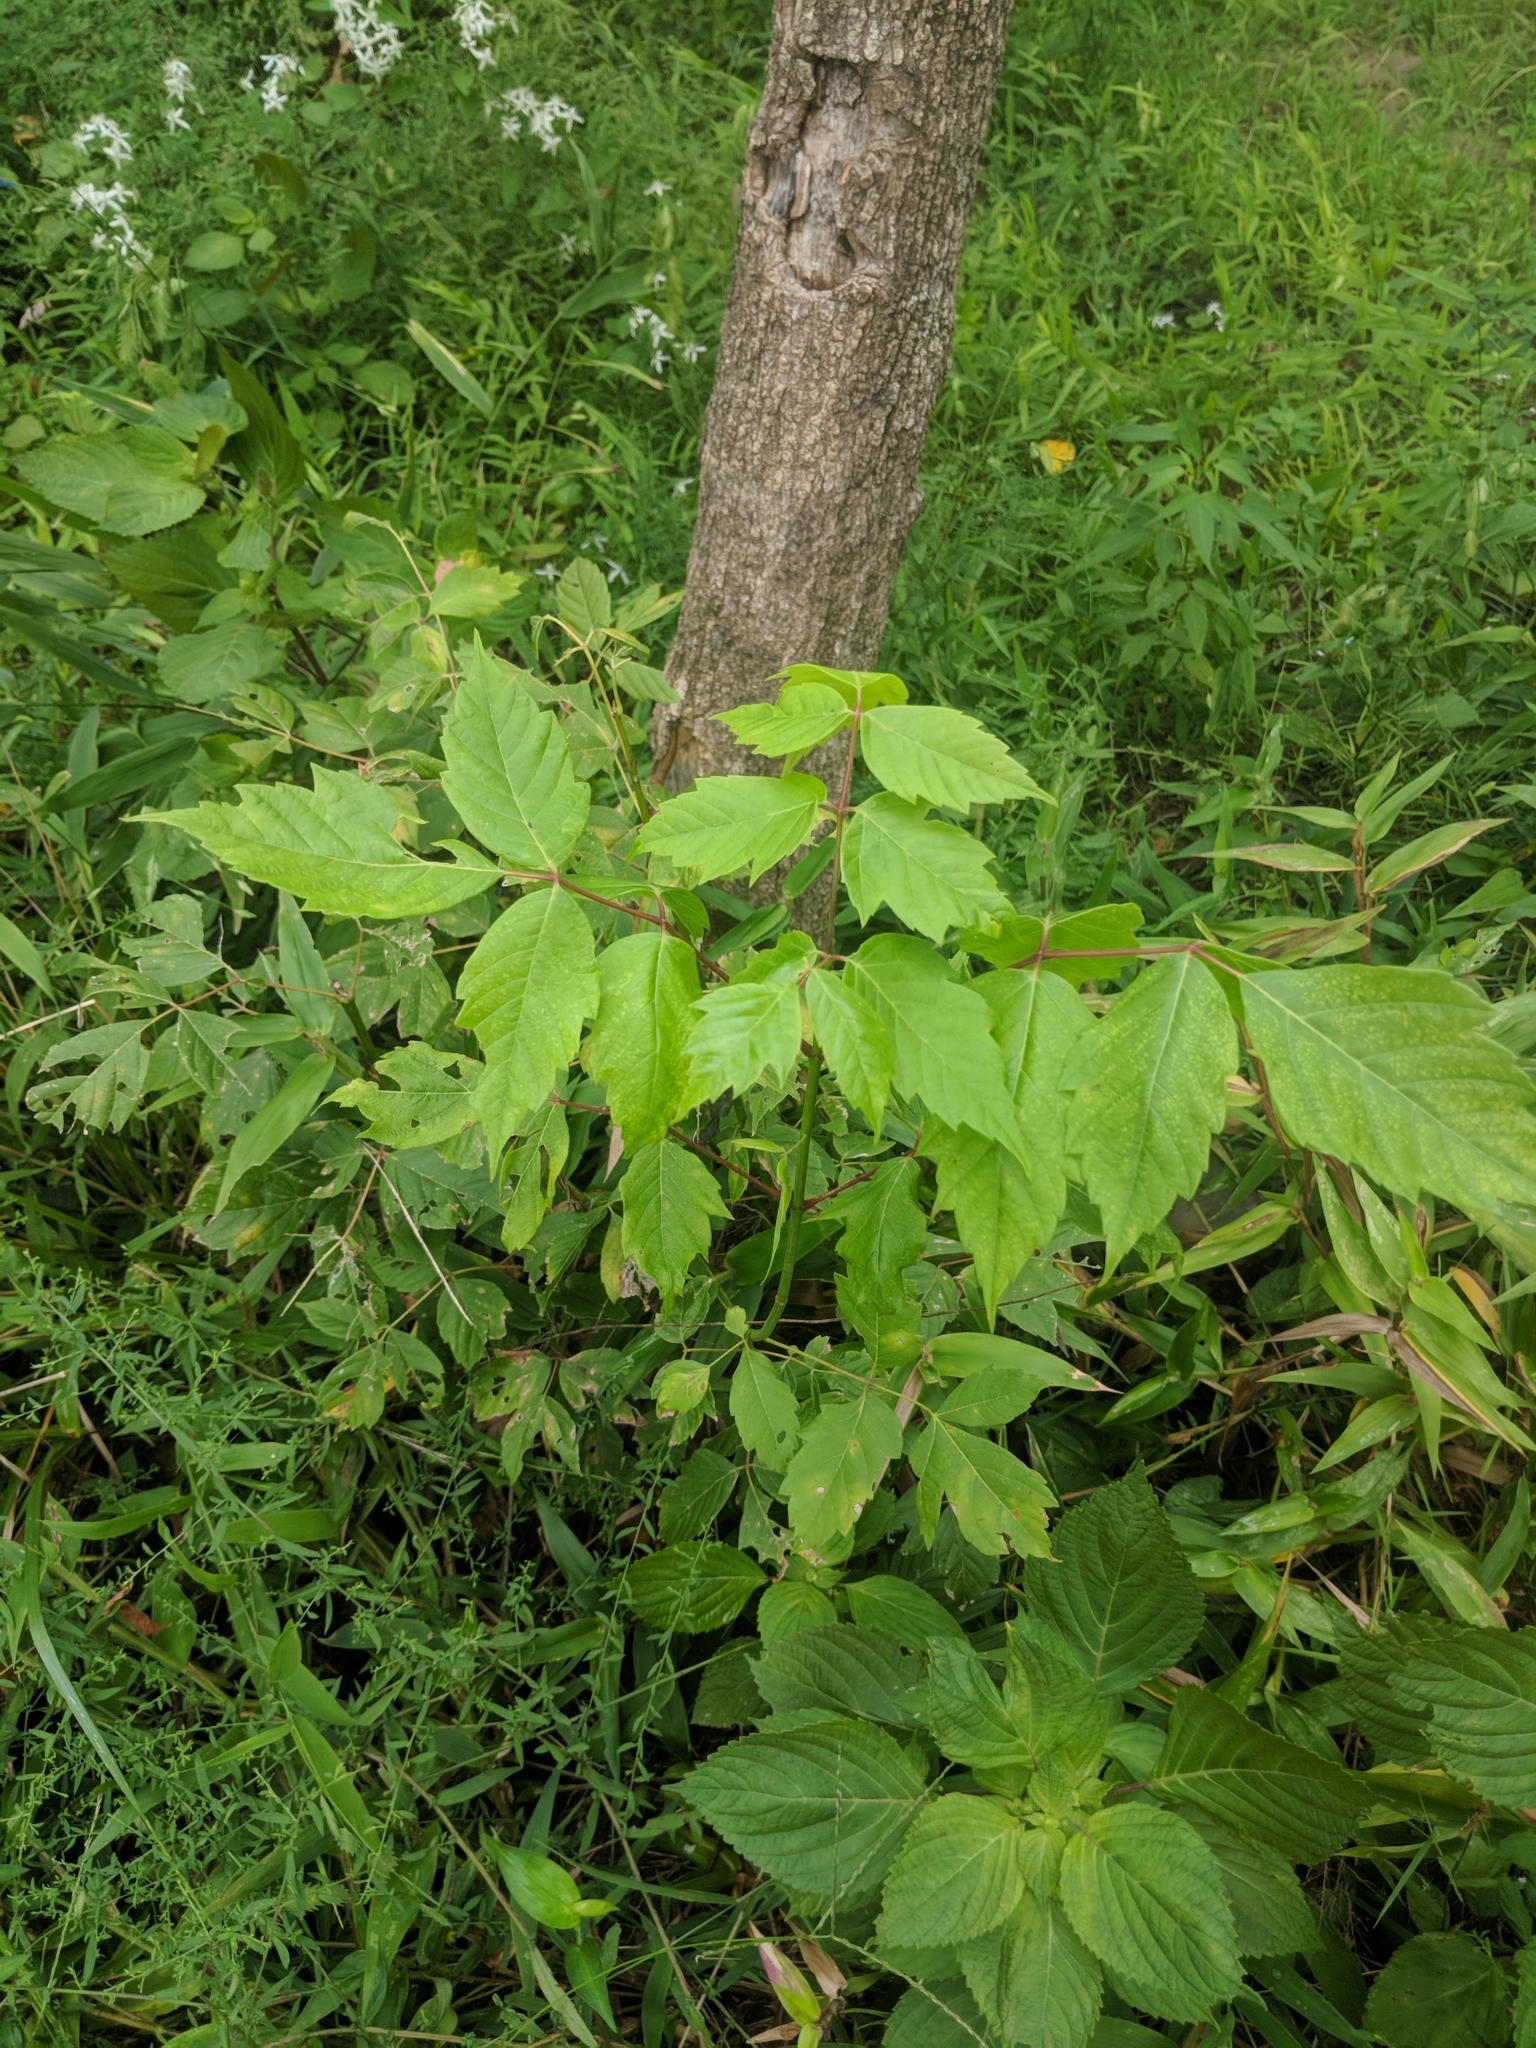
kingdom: Plantae
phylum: Tracheophyta
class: Magnoliopsida
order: Sapindales
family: Sapindaceae
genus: Acer
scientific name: Acer negundo
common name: Ashleaf maple
